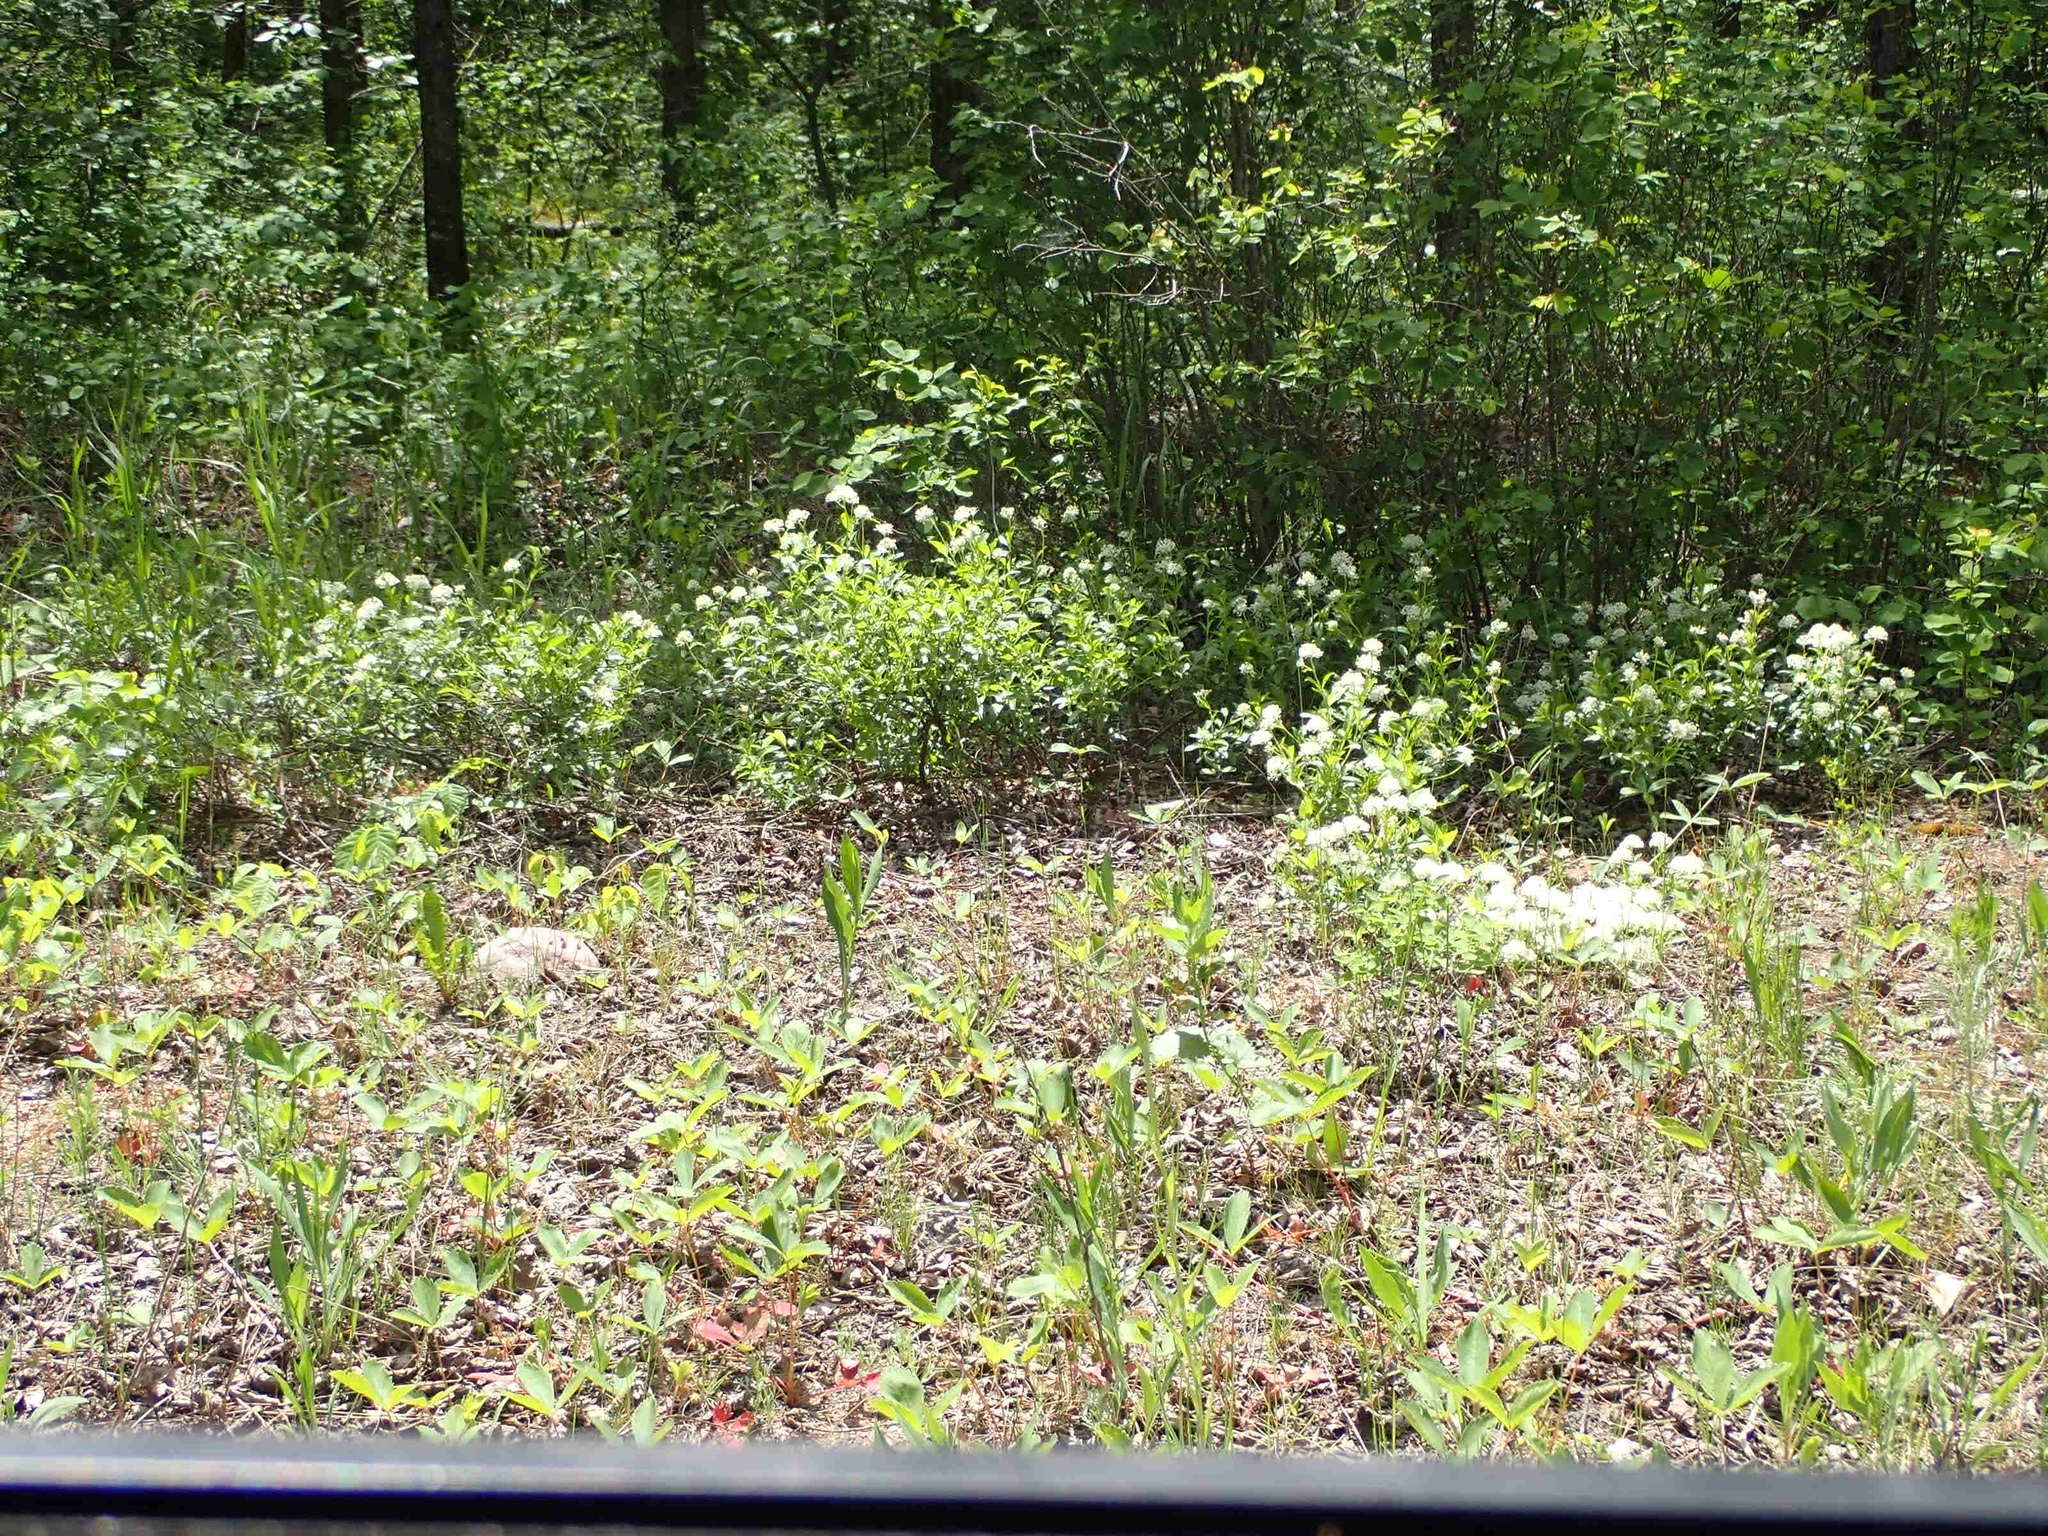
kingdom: Plantae
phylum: Tracheophyta
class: Magnoliopsida
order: Rosales
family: Rhamnaceae
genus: Ceanothus
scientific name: Ceanothus herbaceus
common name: Inland ceanothus
